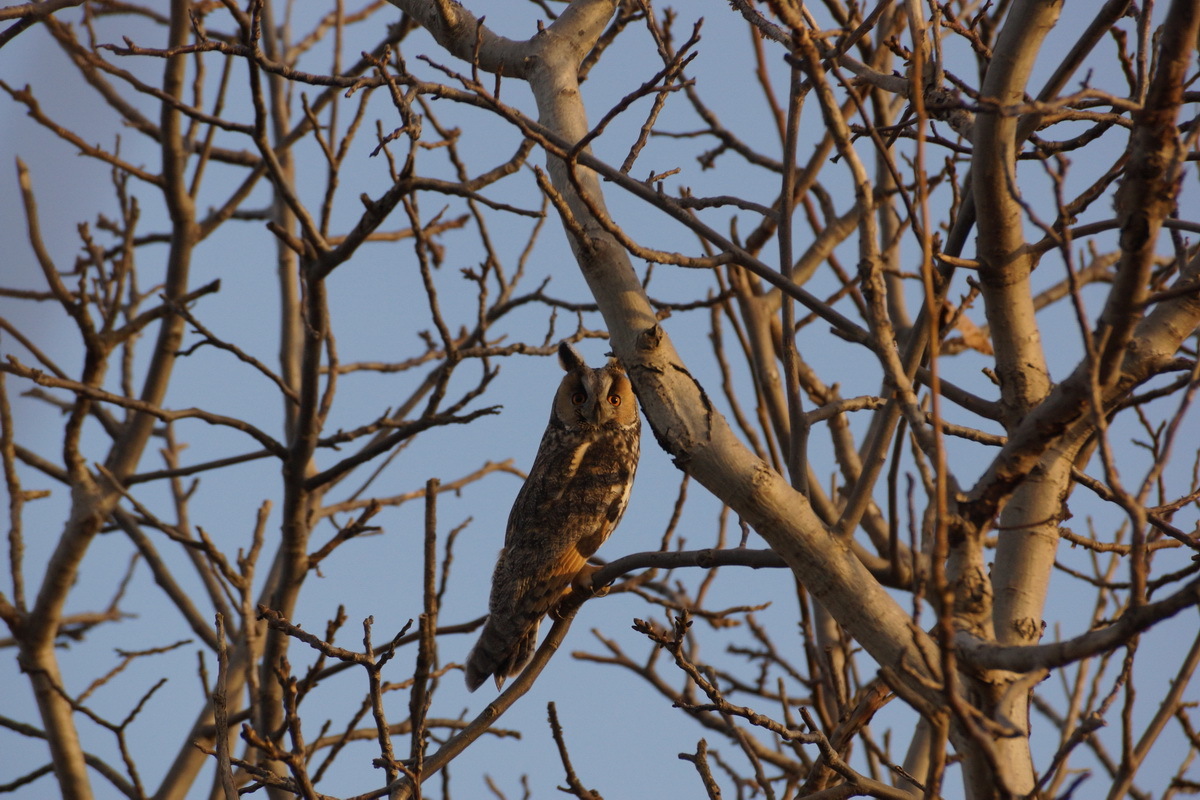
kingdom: Animalia
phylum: Chordata
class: Aves
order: Strigiformes
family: Strigidae
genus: Asio
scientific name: Asio otus
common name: Long-eared owl
